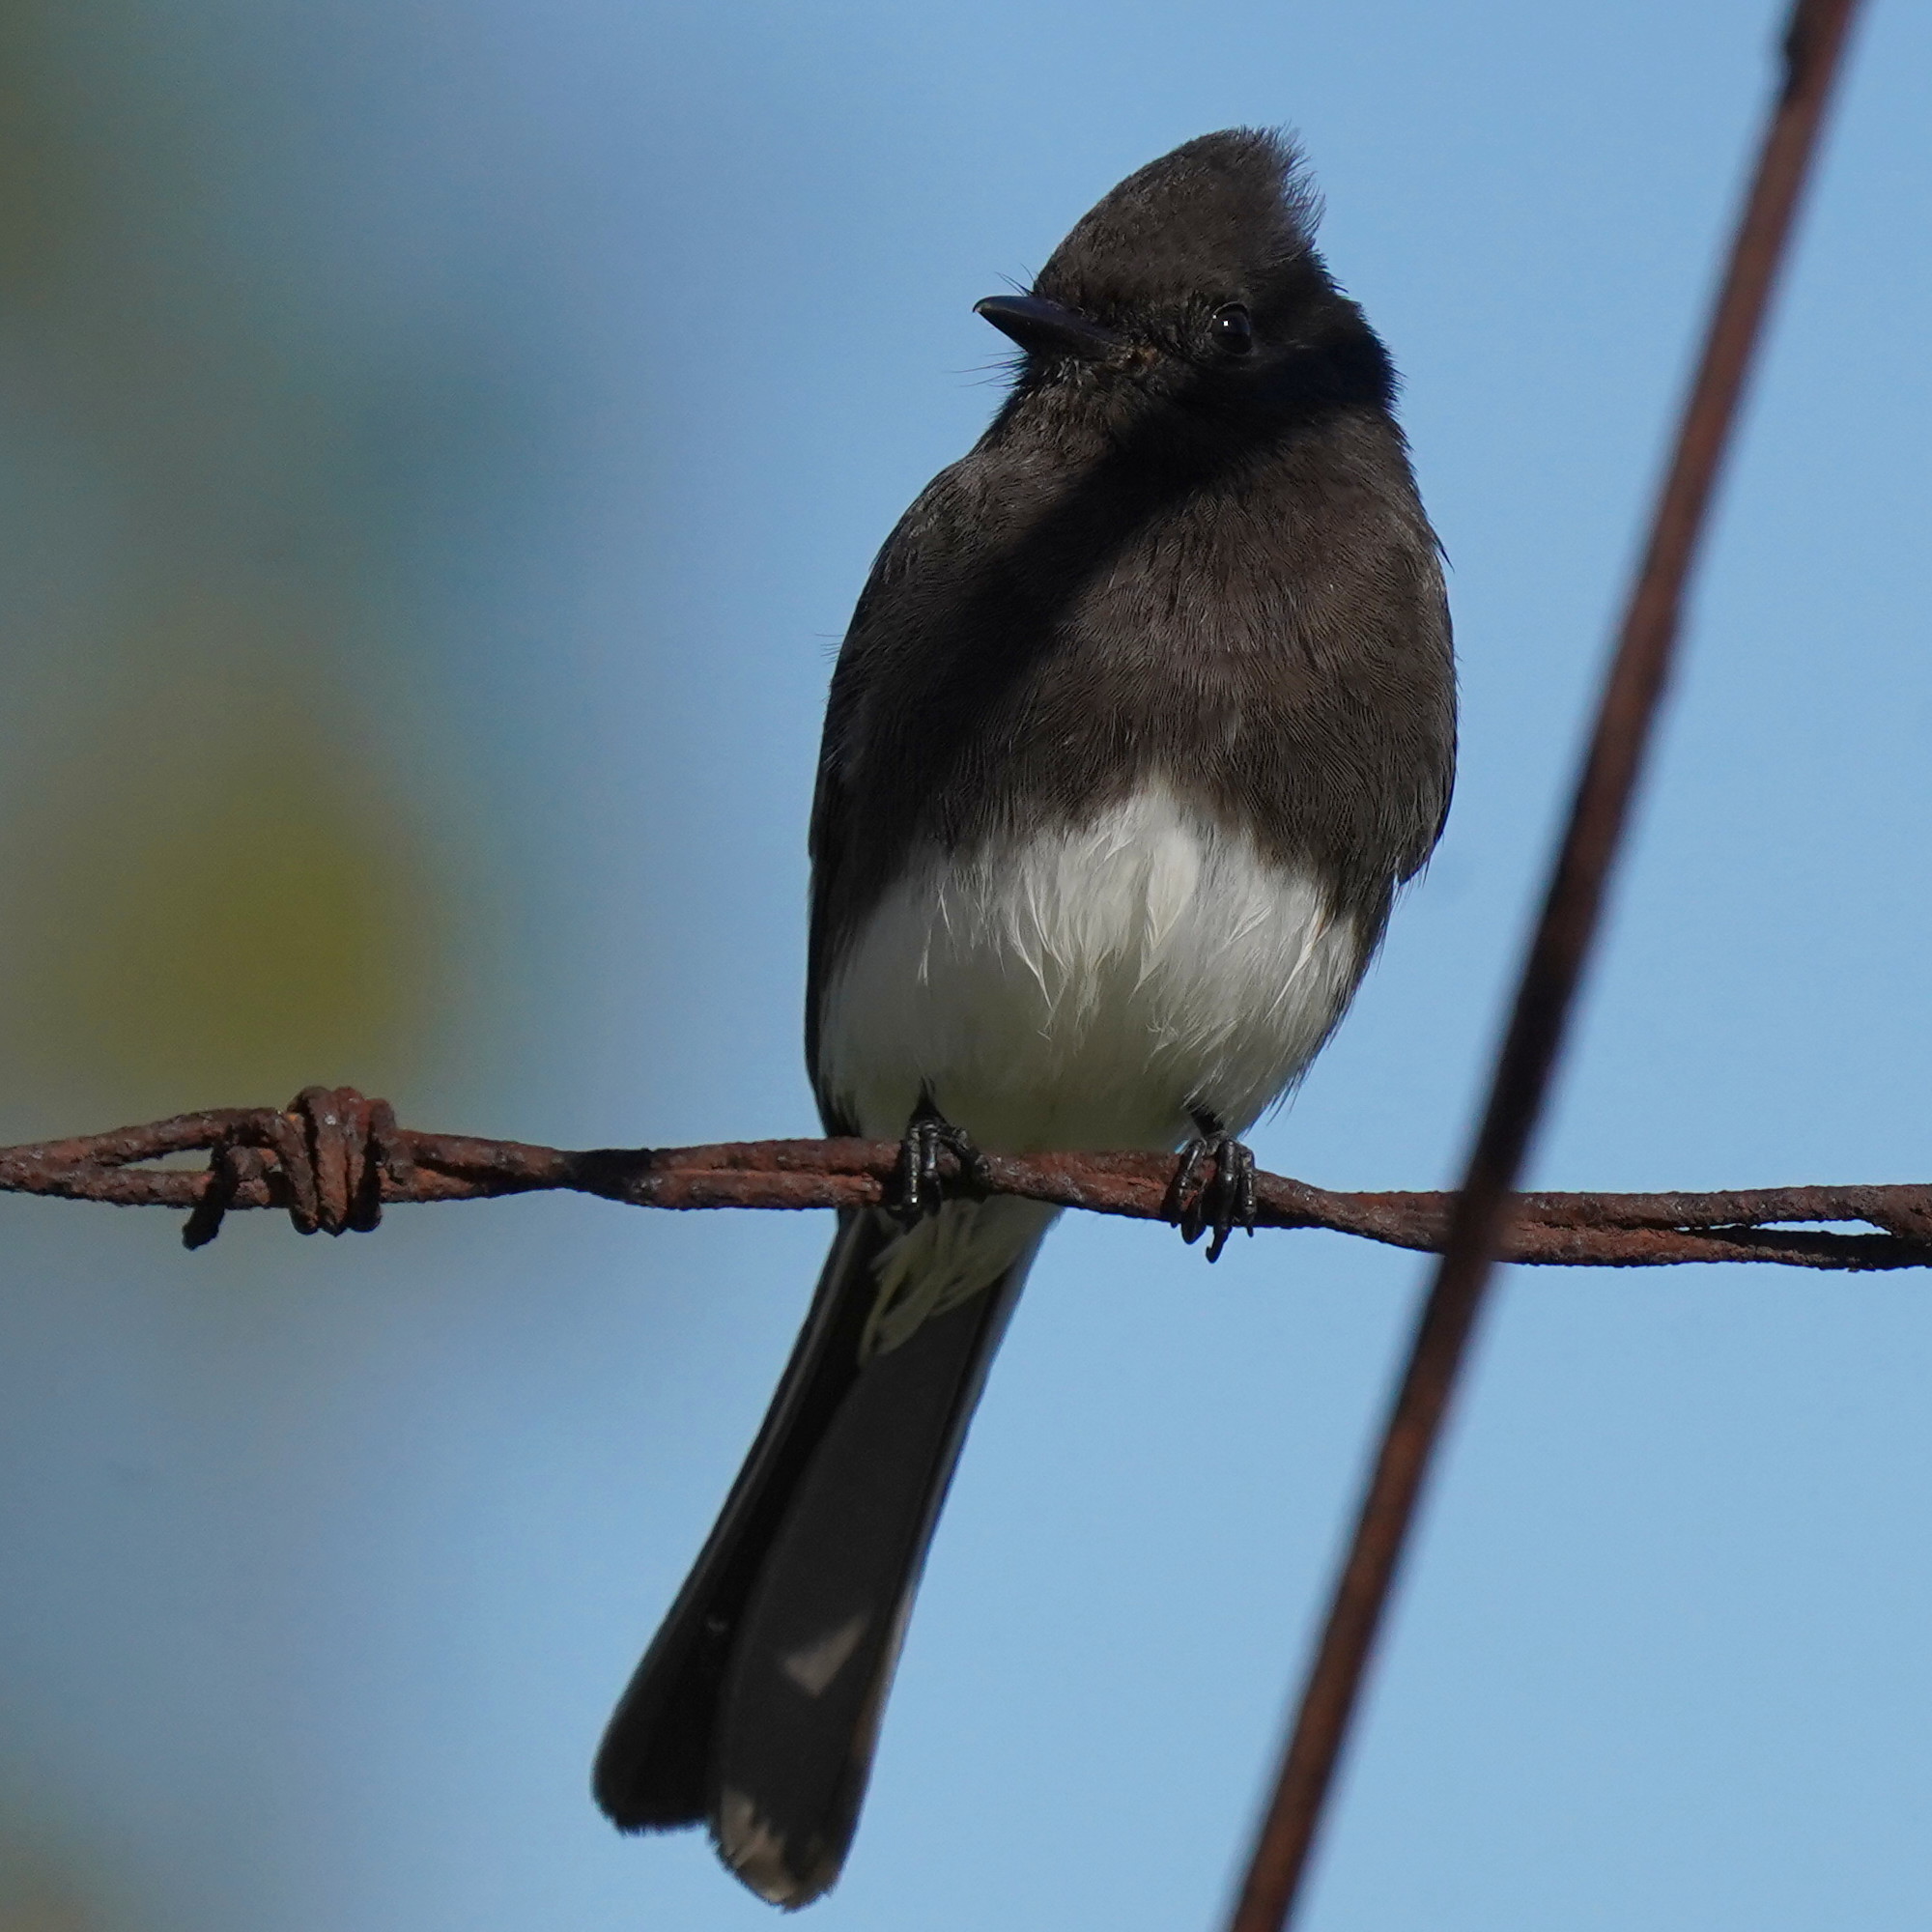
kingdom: Animalia
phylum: Chordata
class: Aves
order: Passeriformes
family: Tyrannidae
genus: Sayornis
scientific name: Sayornis nigricans
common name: Black phoebe
